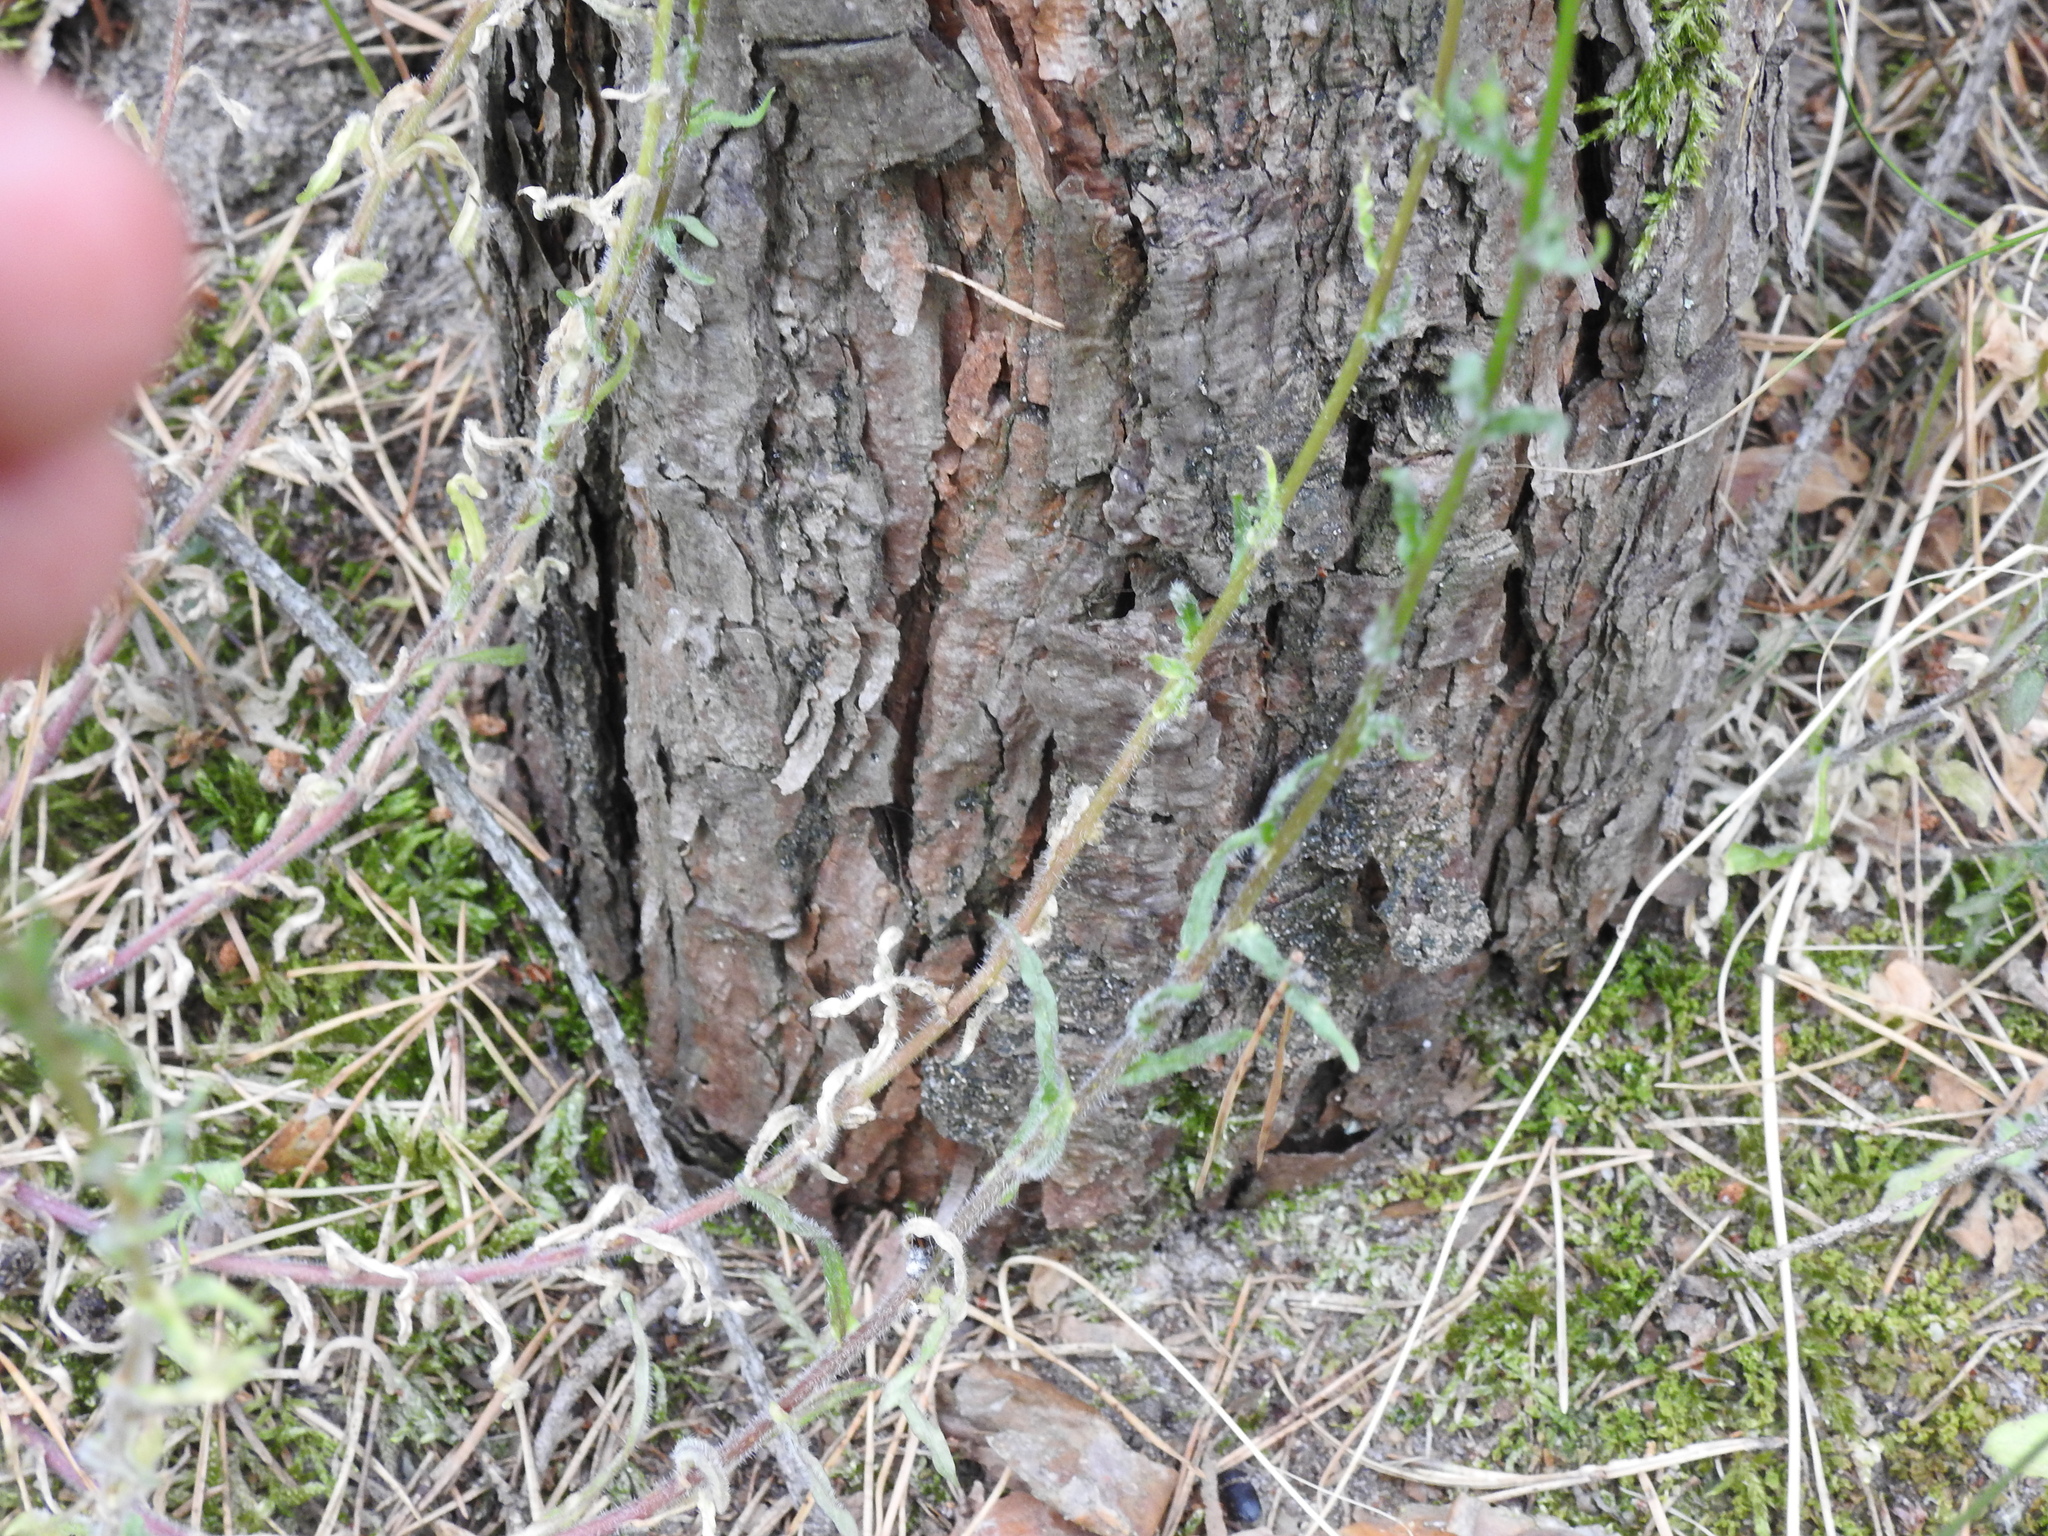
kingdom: Plantae
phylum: Tracheophyta
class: Magnoliopsida
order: Asterales
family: Campanulaceae
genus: Jasione
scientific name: Jasione montana
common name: Sheep's-bit
